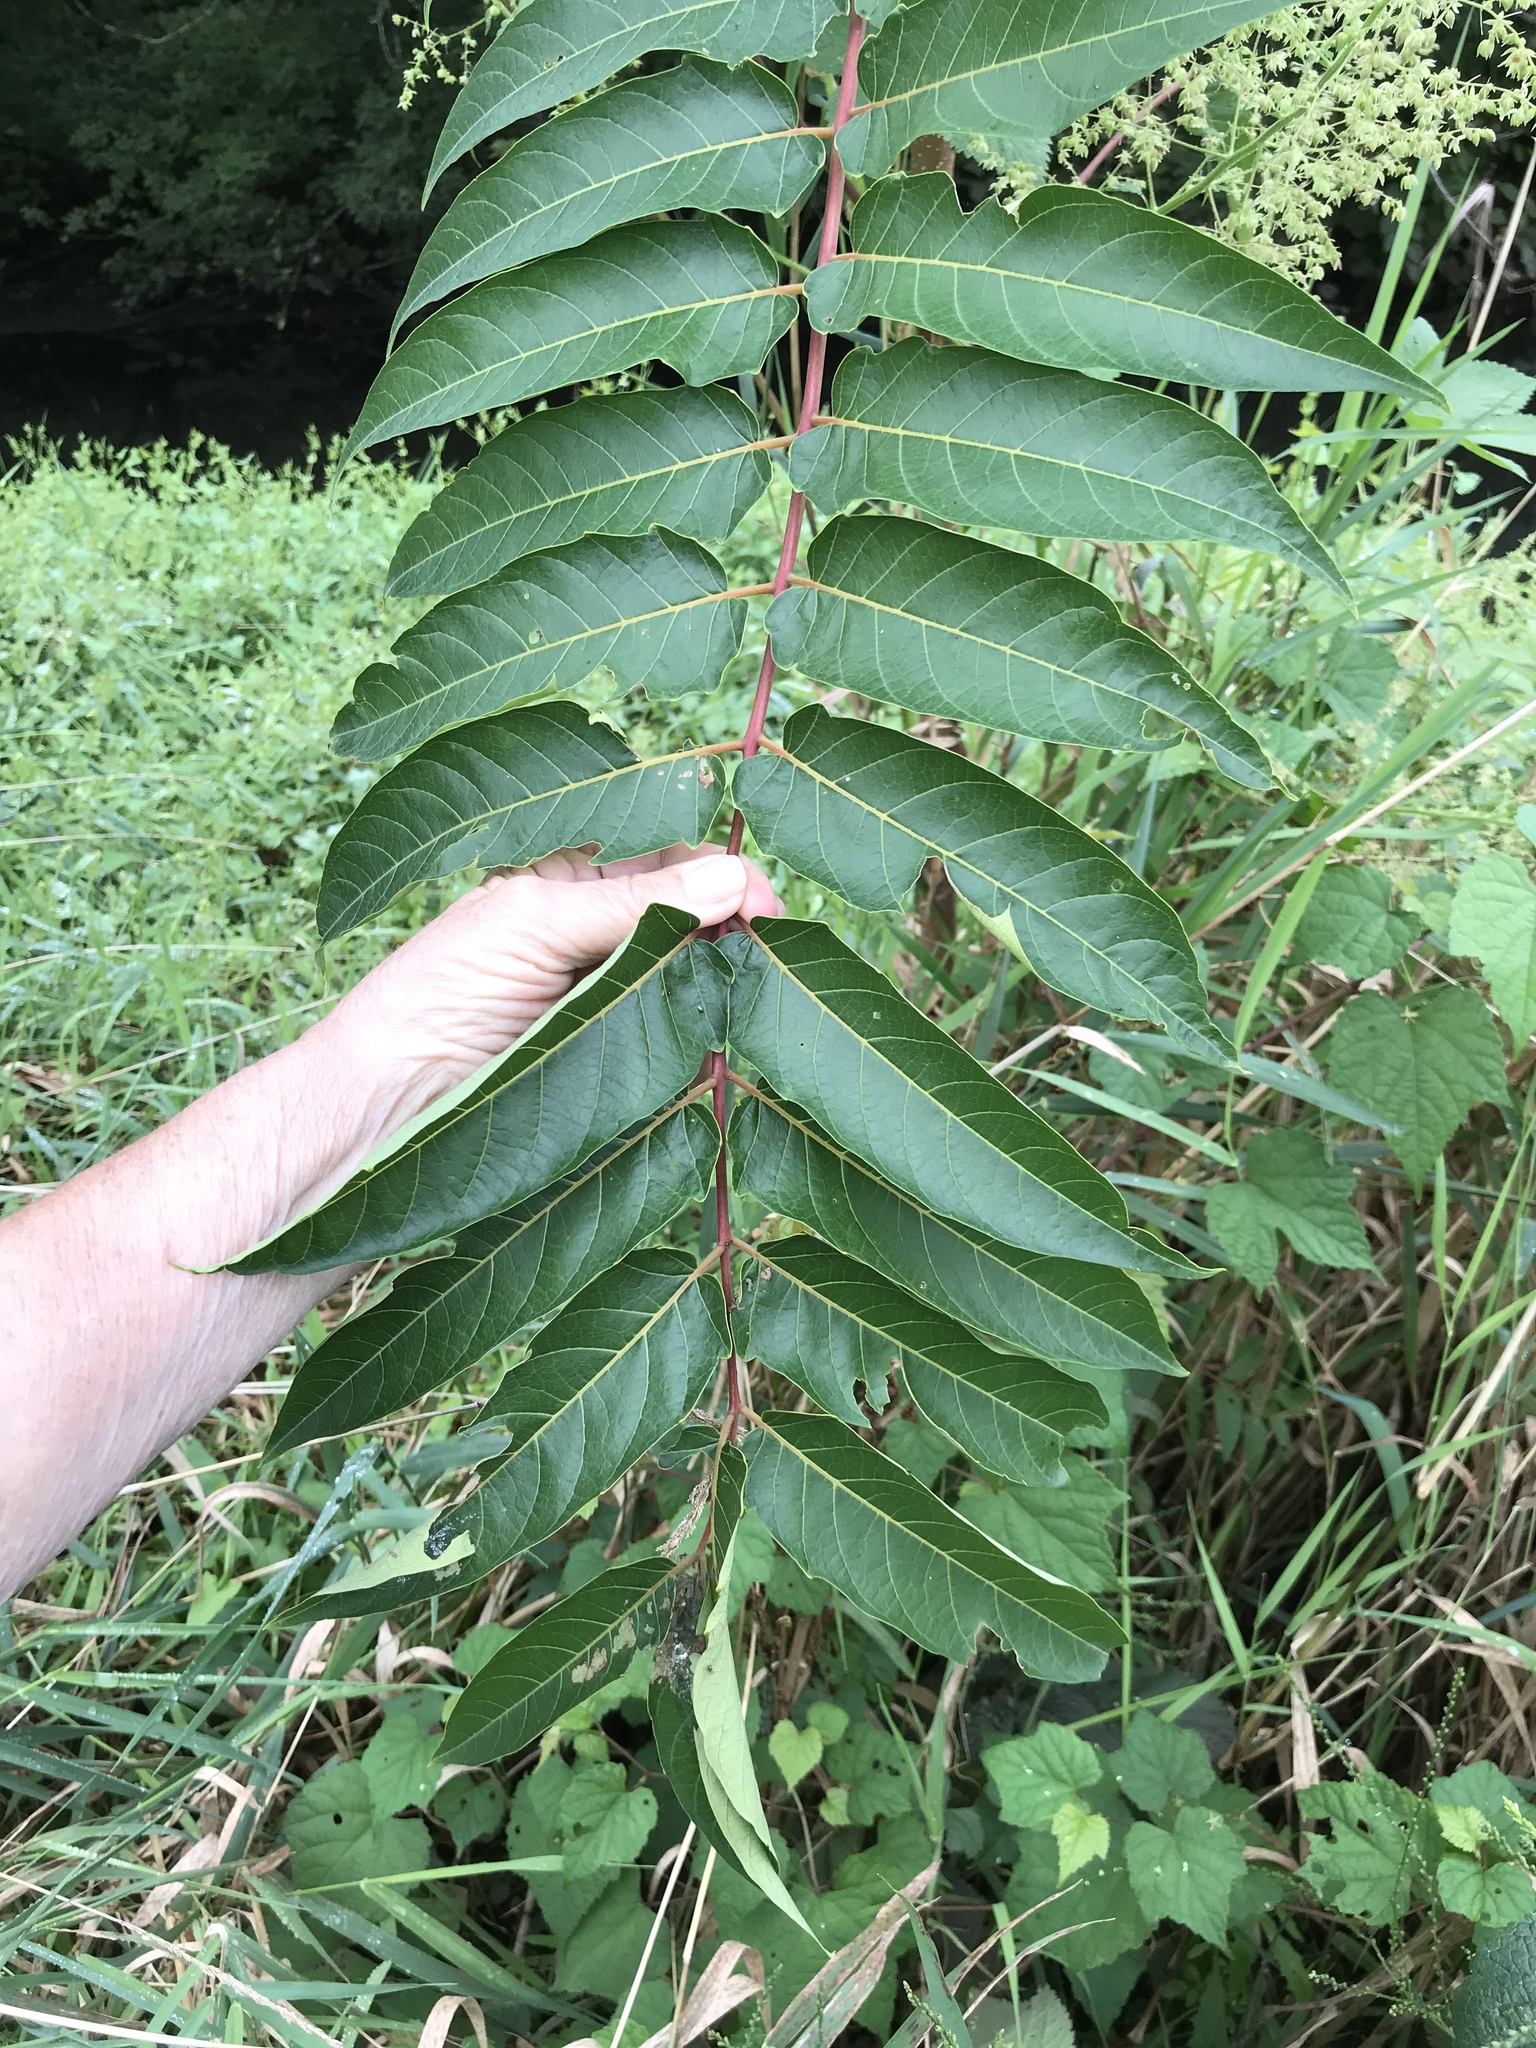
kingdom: Plantae
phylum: Tracheophyta
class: Magnoliopsida
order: Sapindales
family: Simaroubaceae
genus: Ailanthus
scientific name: Ailanthus altissima
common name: Tree-of-heaven
